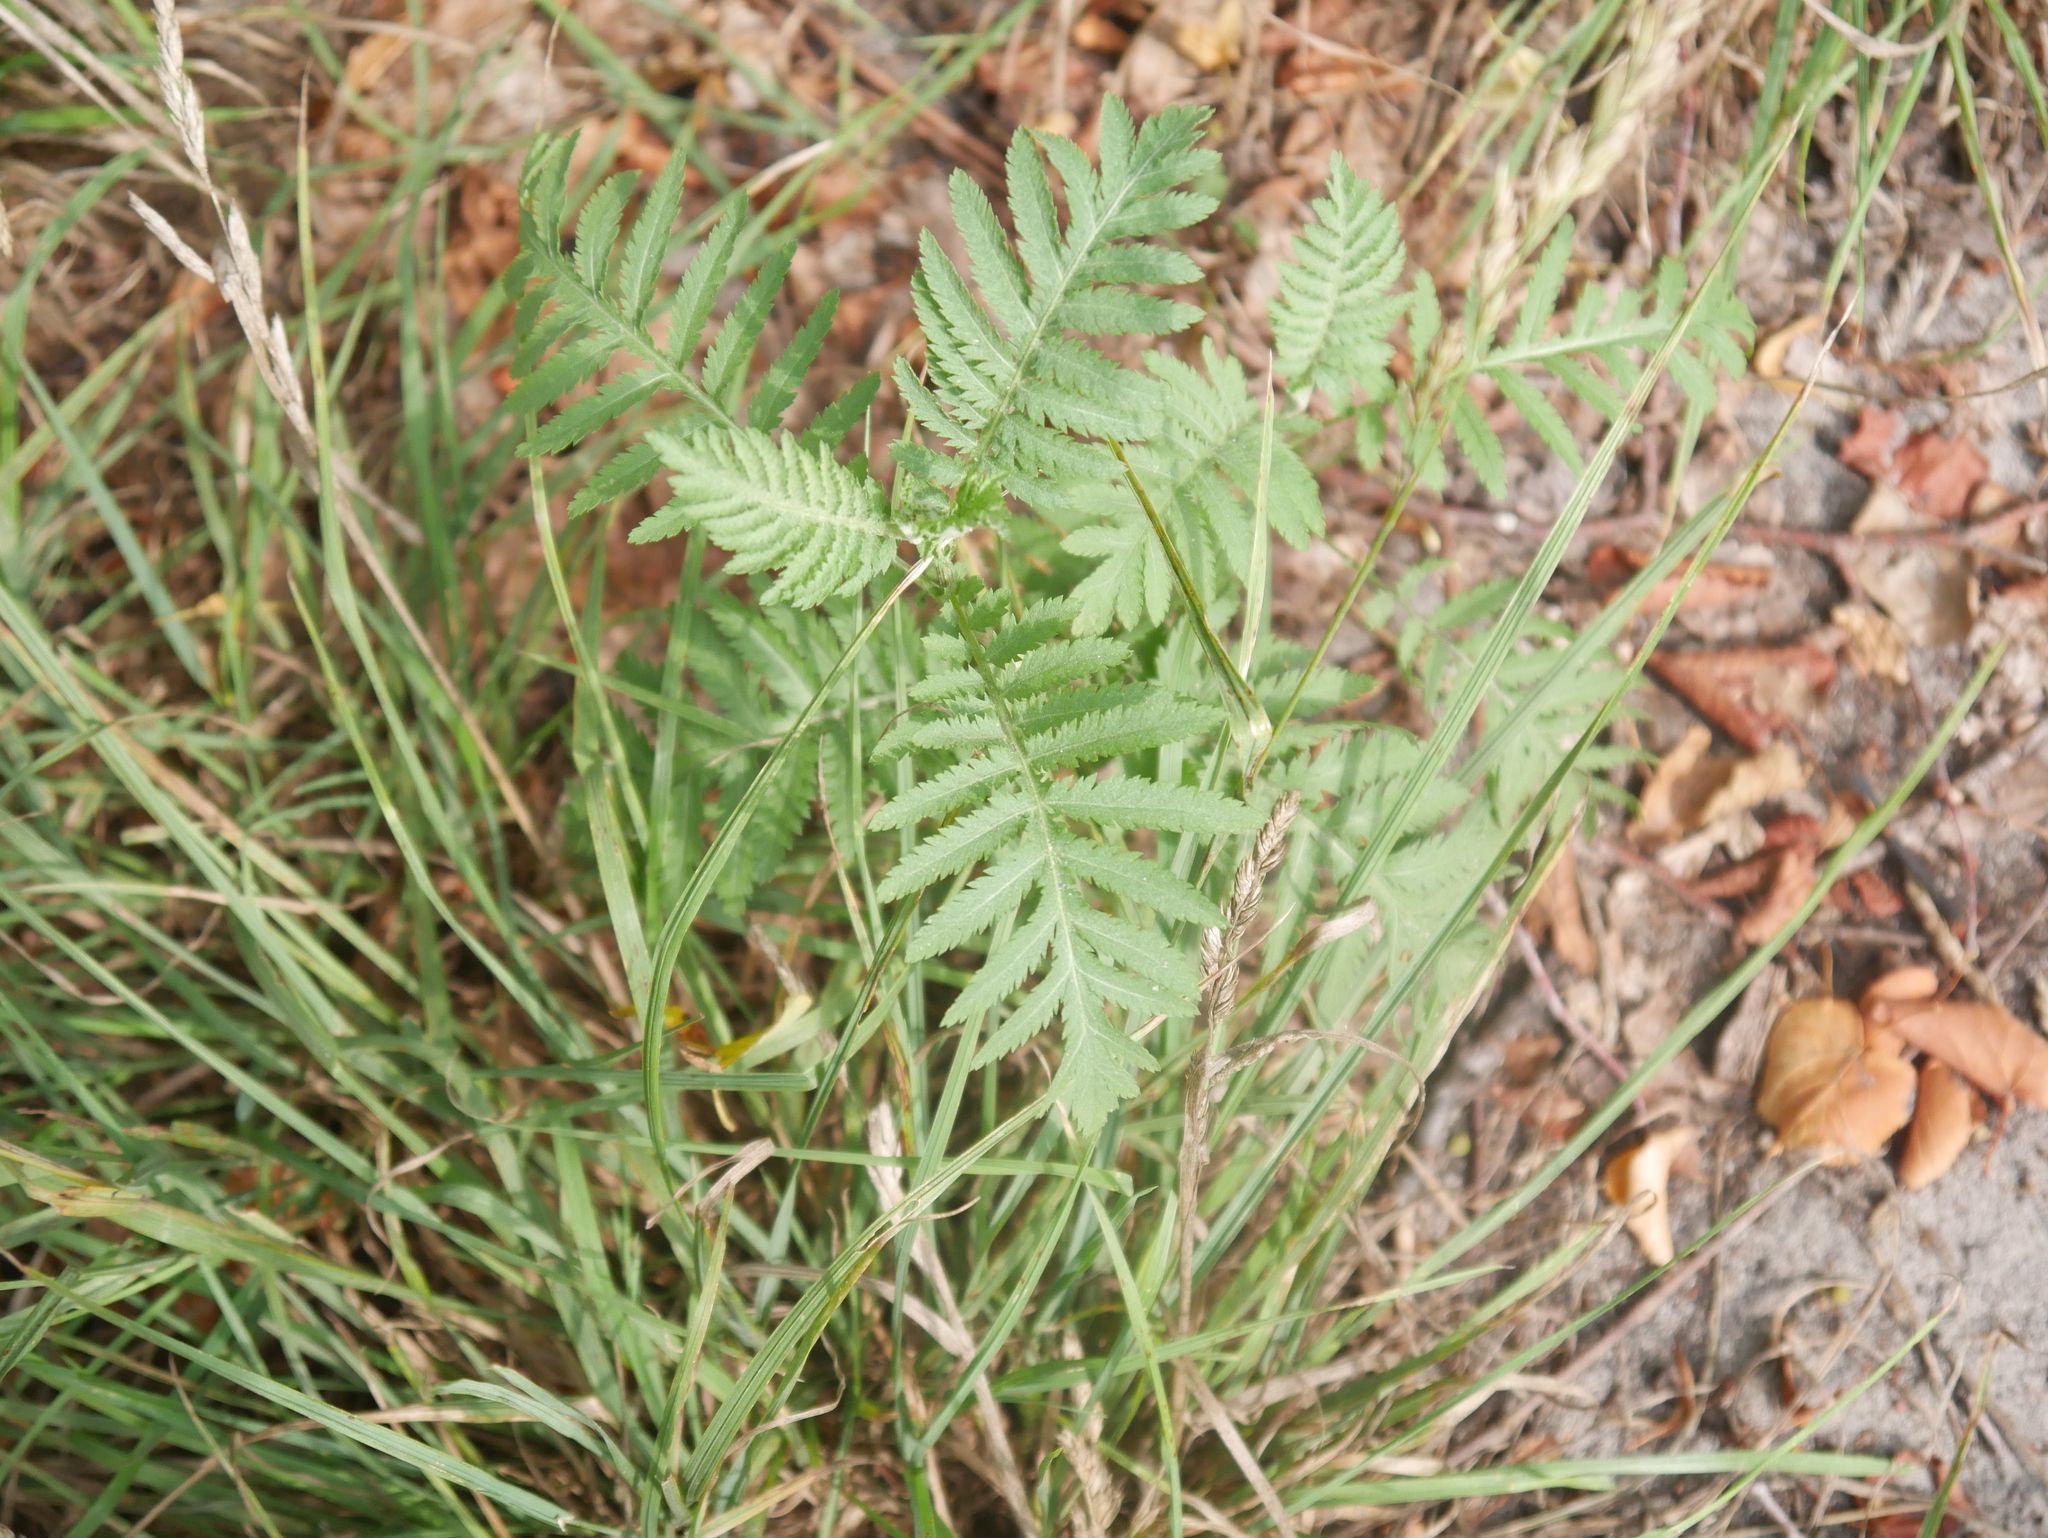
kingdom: Plantae
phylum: Tracheophyta
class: Magnoliopsida
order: Asterales
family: Asteraceae
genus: Tanacetum
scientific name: Tanacetum vulgare
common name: Common tansy
